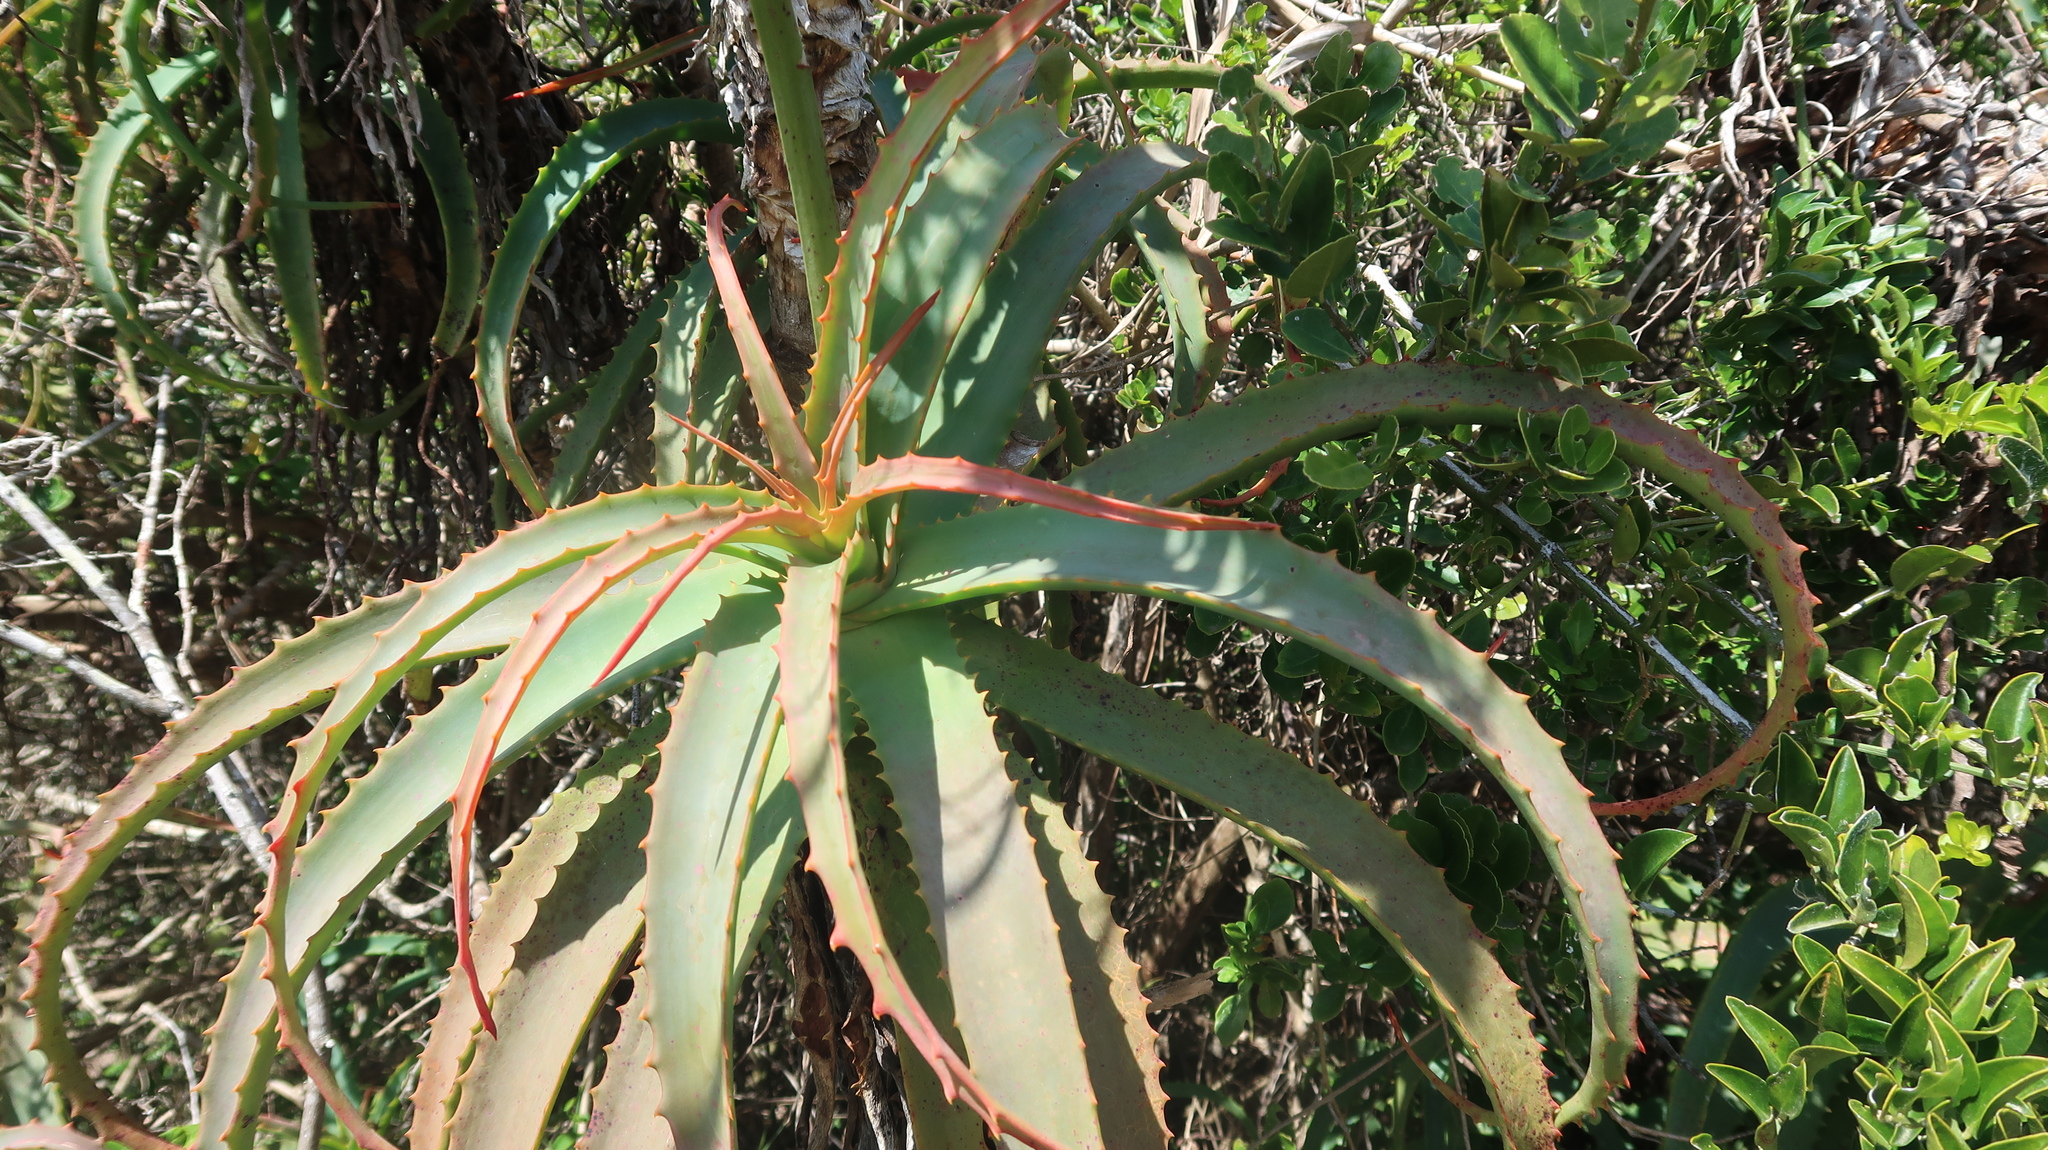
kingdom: Plantae
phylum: Tracheophyta
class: Liliopsida
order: Asparagales
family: Asphodelaceae
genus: Aloe
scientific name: Aloe arborescens
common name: Candelabra aloe
